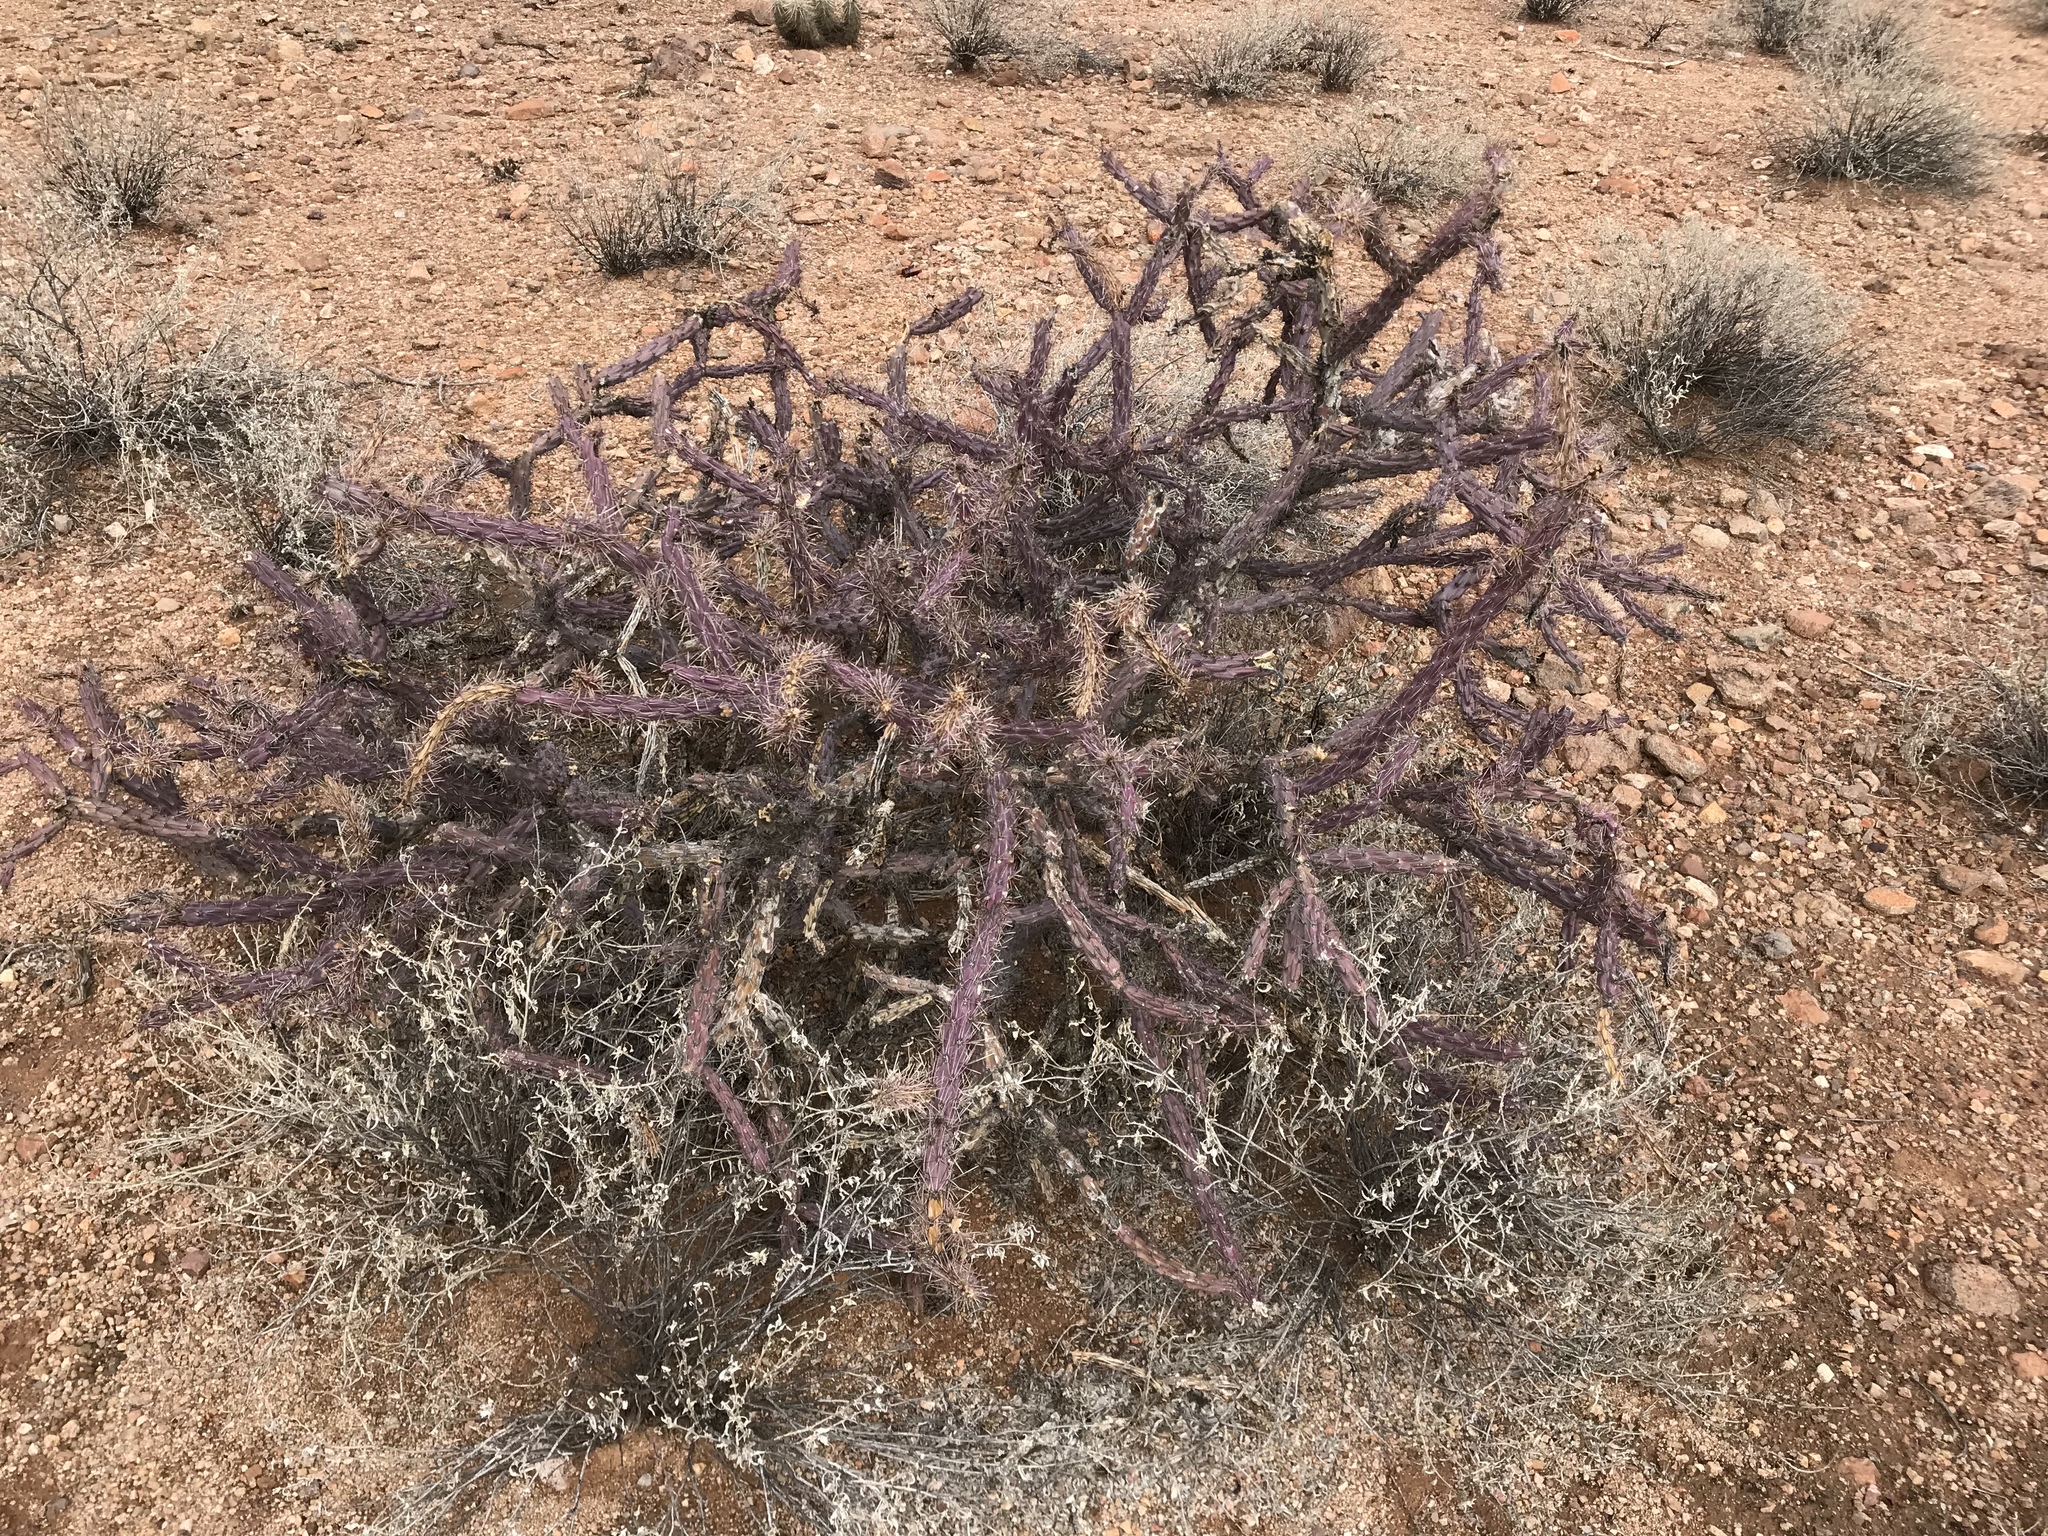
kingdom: Plantae
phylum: Tracheophyta
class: Magnoliopsida
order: Caryophyllales
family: Cactaceae
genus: Cylindropuntia
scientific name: Cylindropuntia thurberi
